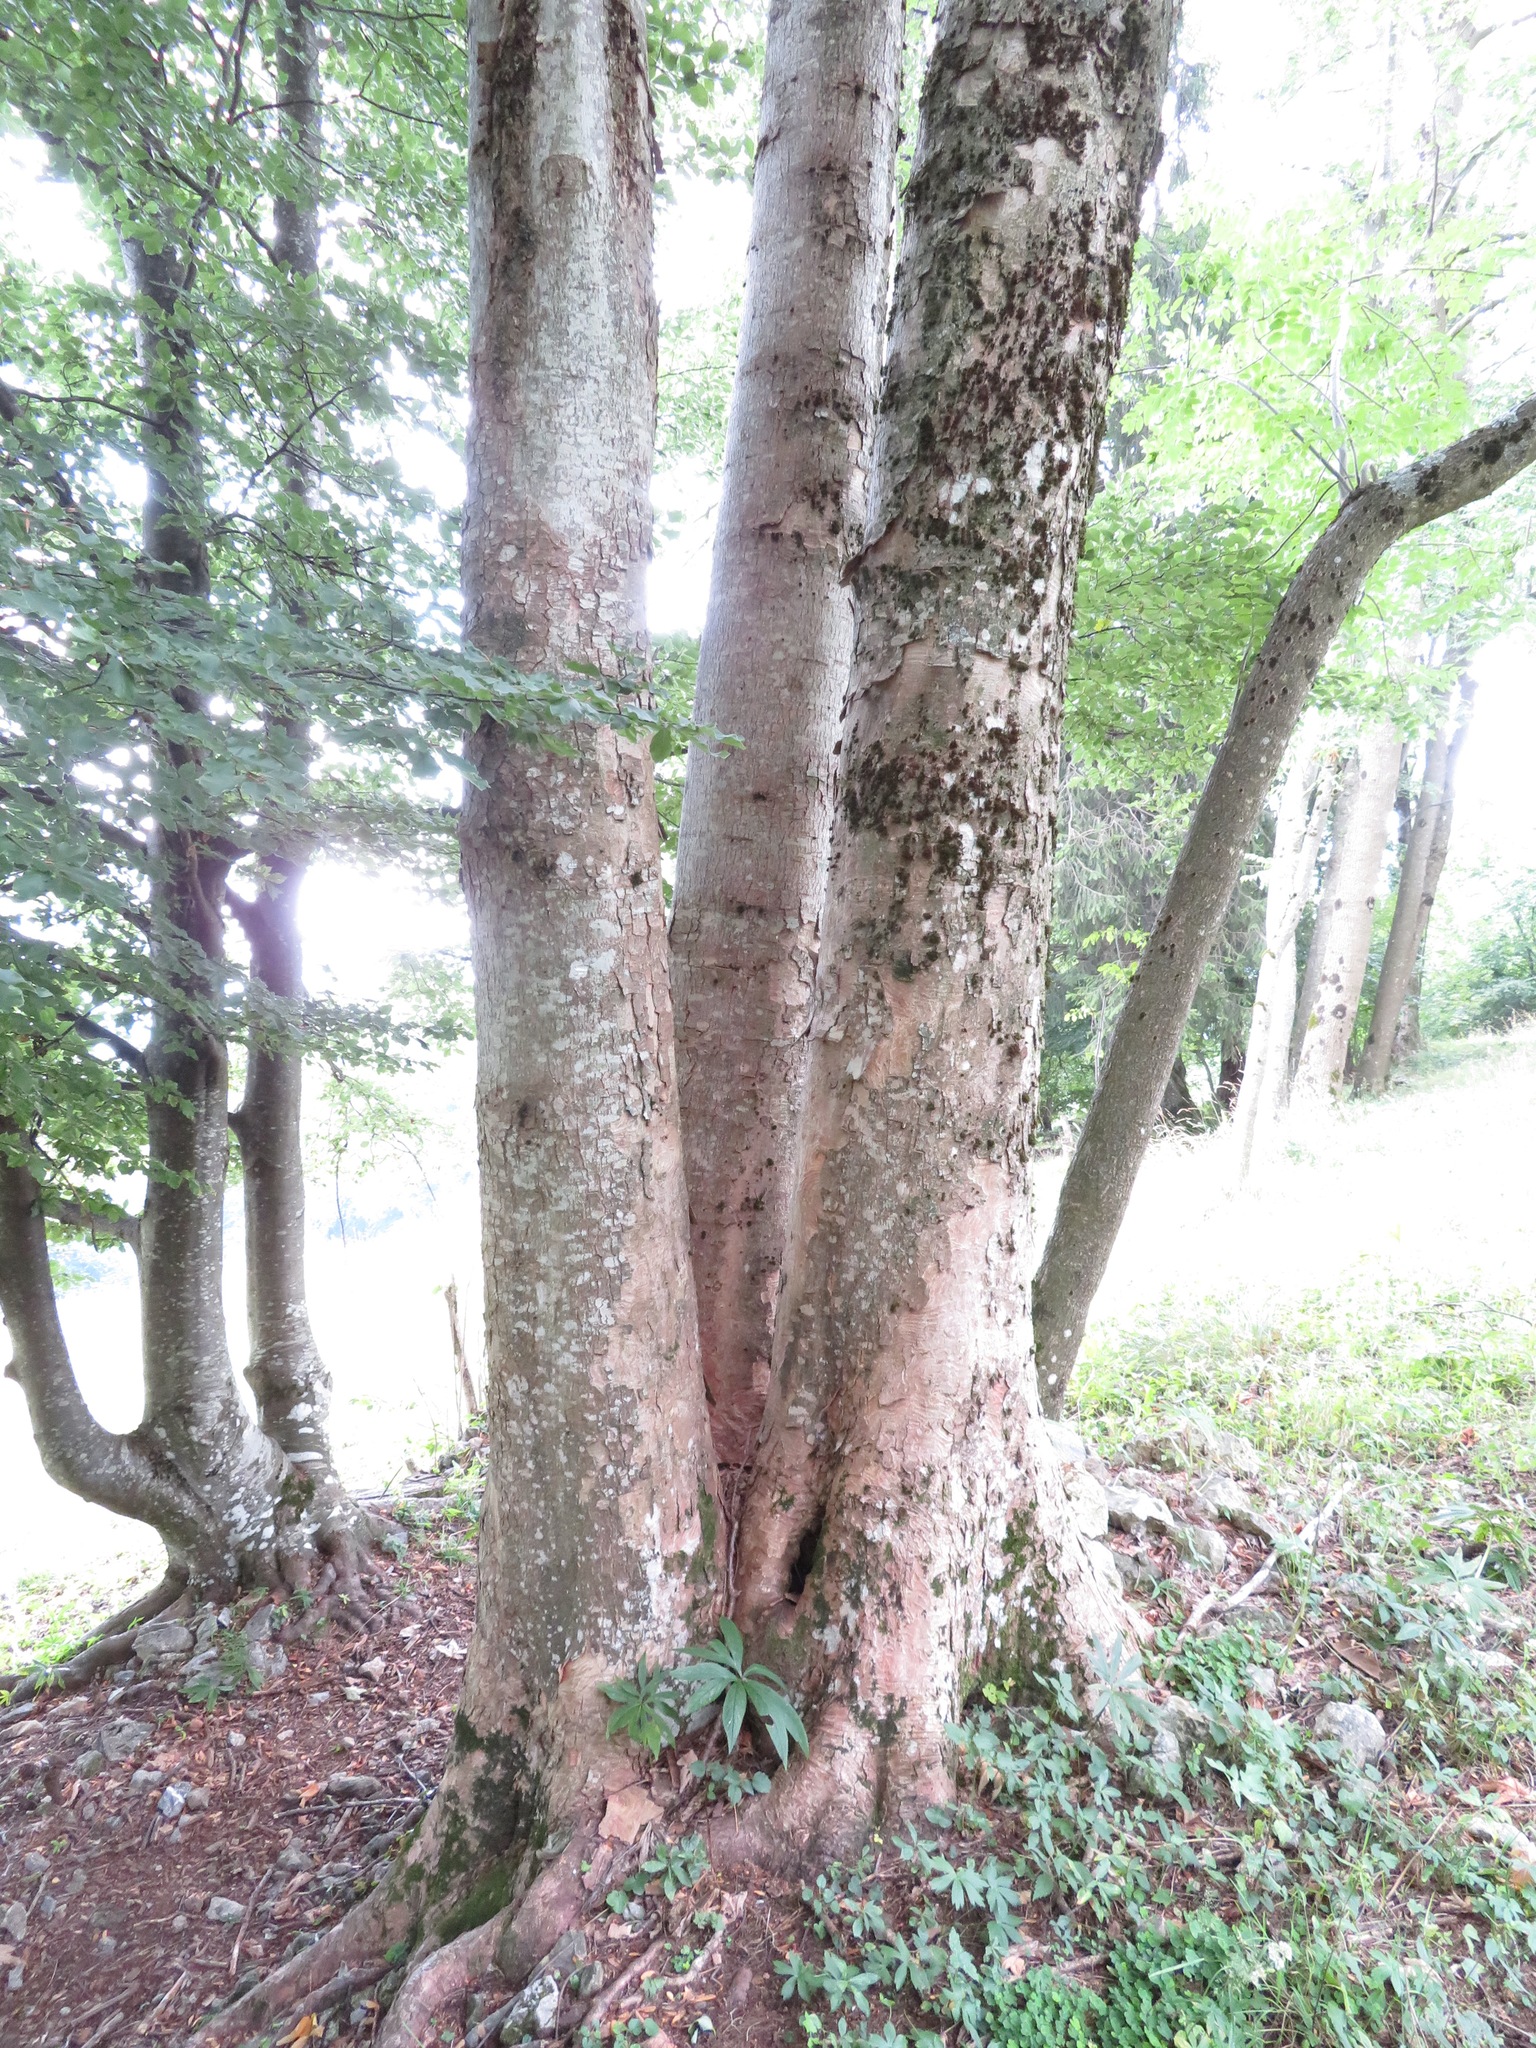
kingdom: Plantae
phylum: Tracheophyta
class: Magnoliopsida
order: Sapindales
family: Sapindaceae
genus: Acer
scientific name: Acer pseudoplatanus
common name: Sycamore
